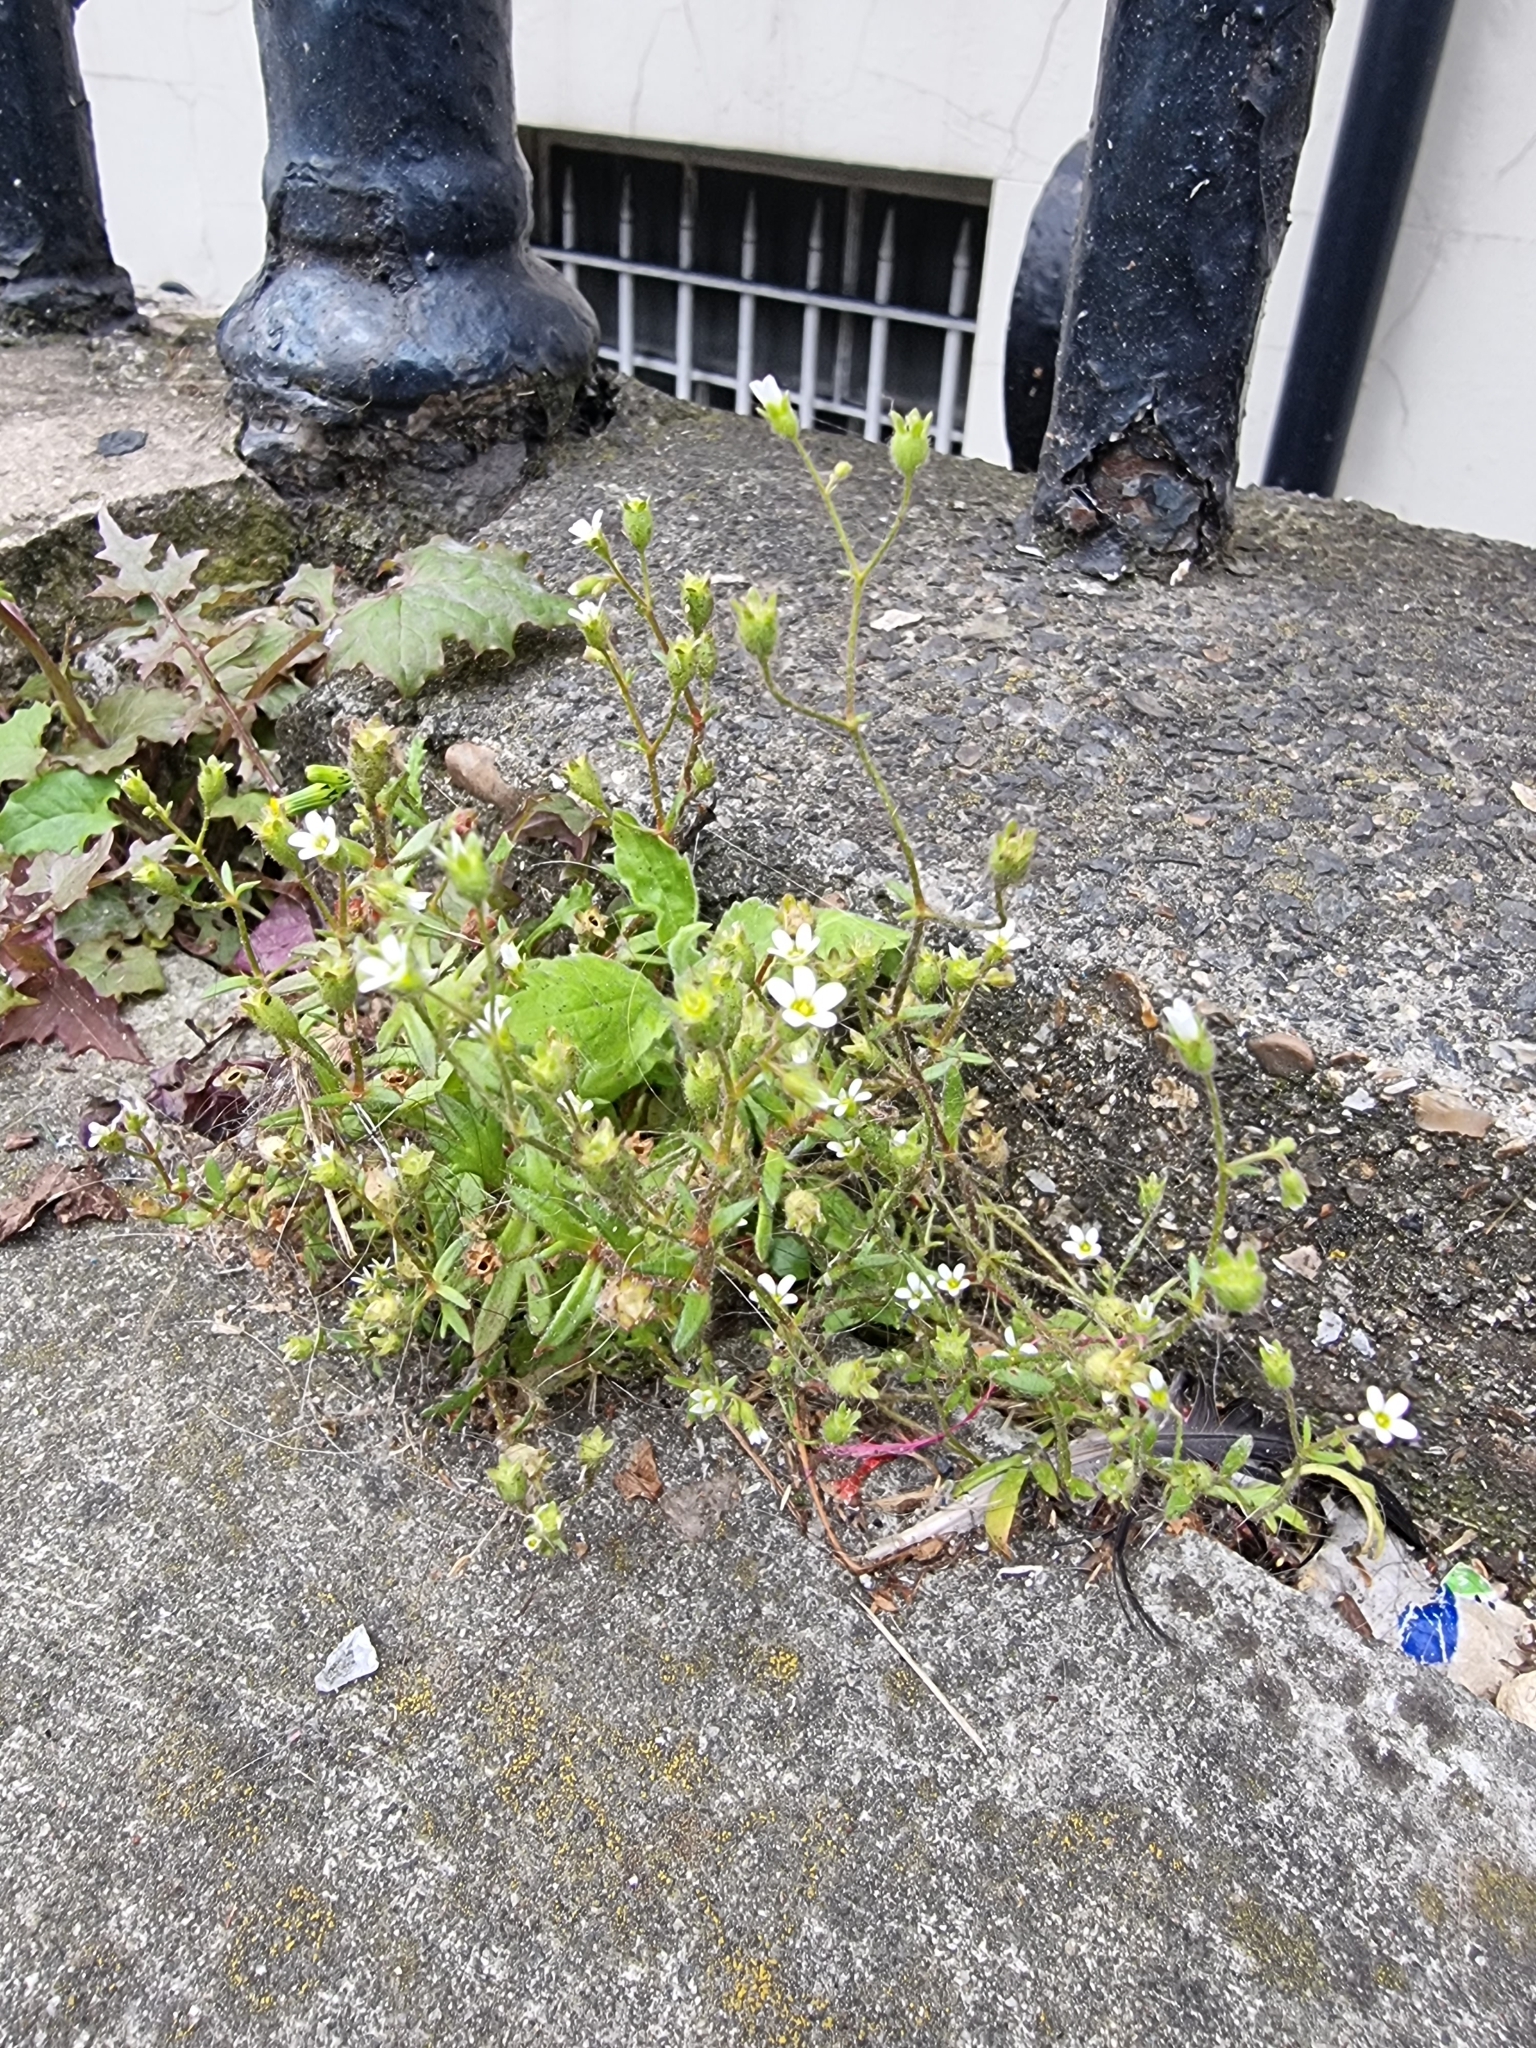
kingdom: Plantae
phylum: Tracheophyta
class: Magnoliopsida
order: Saxifragales
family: Saxifragaceae
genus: Saxifraga
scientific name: Saxifraga tridactylites
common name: Rue-leaved saxifrage
